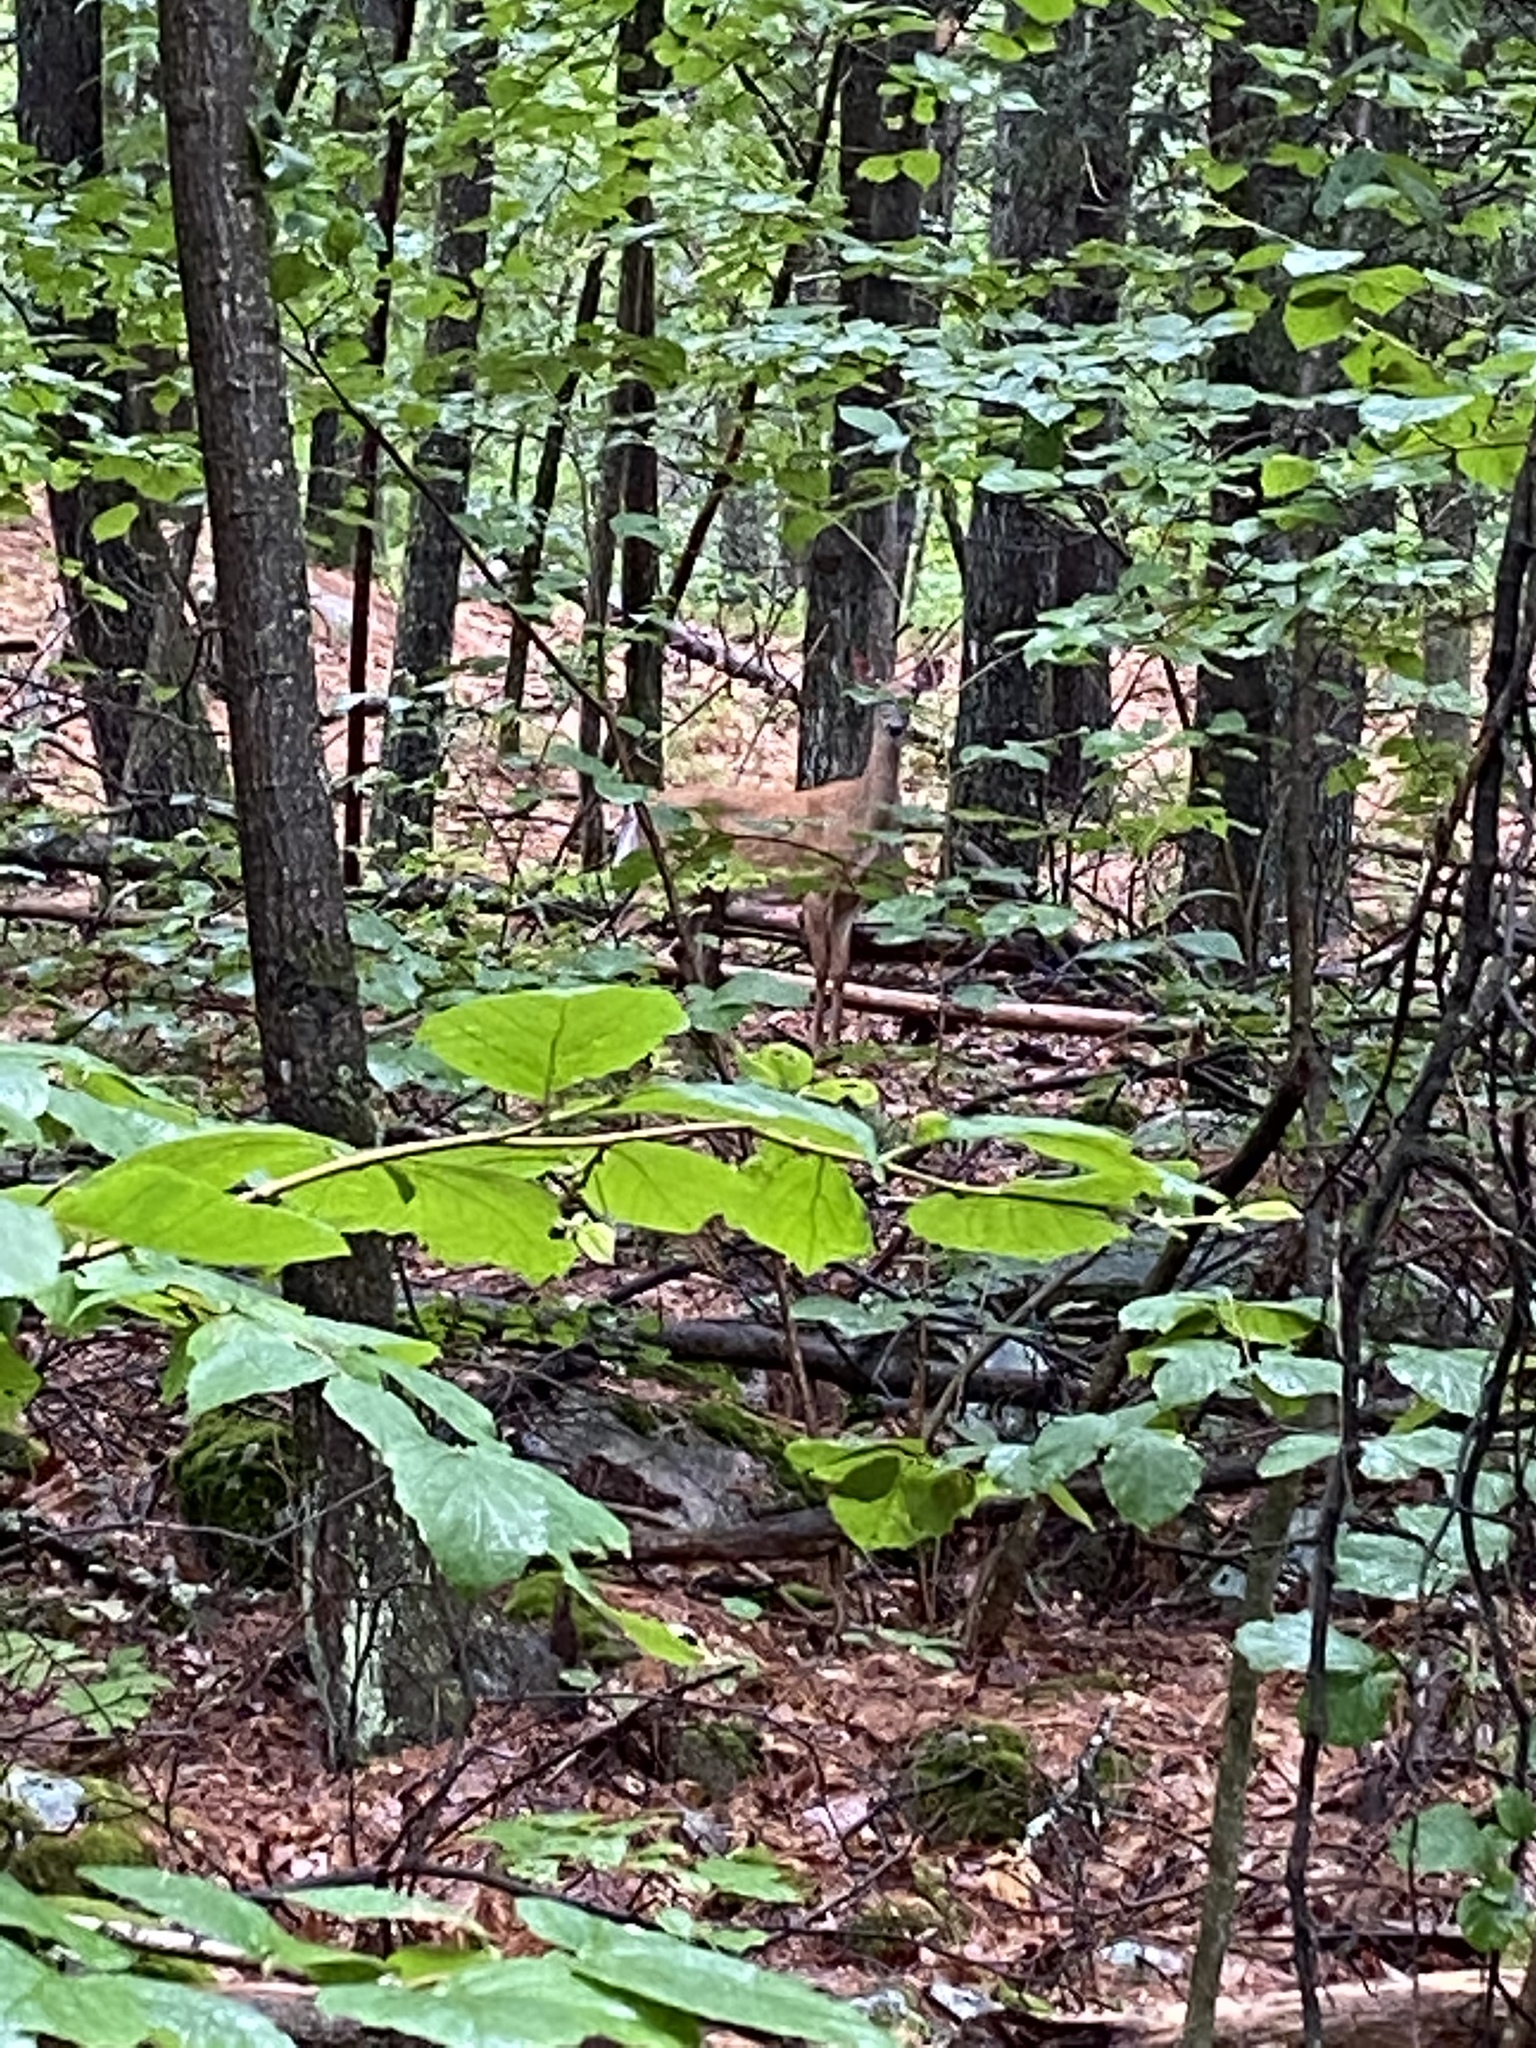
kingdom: Animalia
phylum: Chordata
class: Mammalia
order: Artiodactyla
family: Cervidae
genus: Odocoileus
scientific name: Odocoileus virginianus
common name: White-tailed deer
